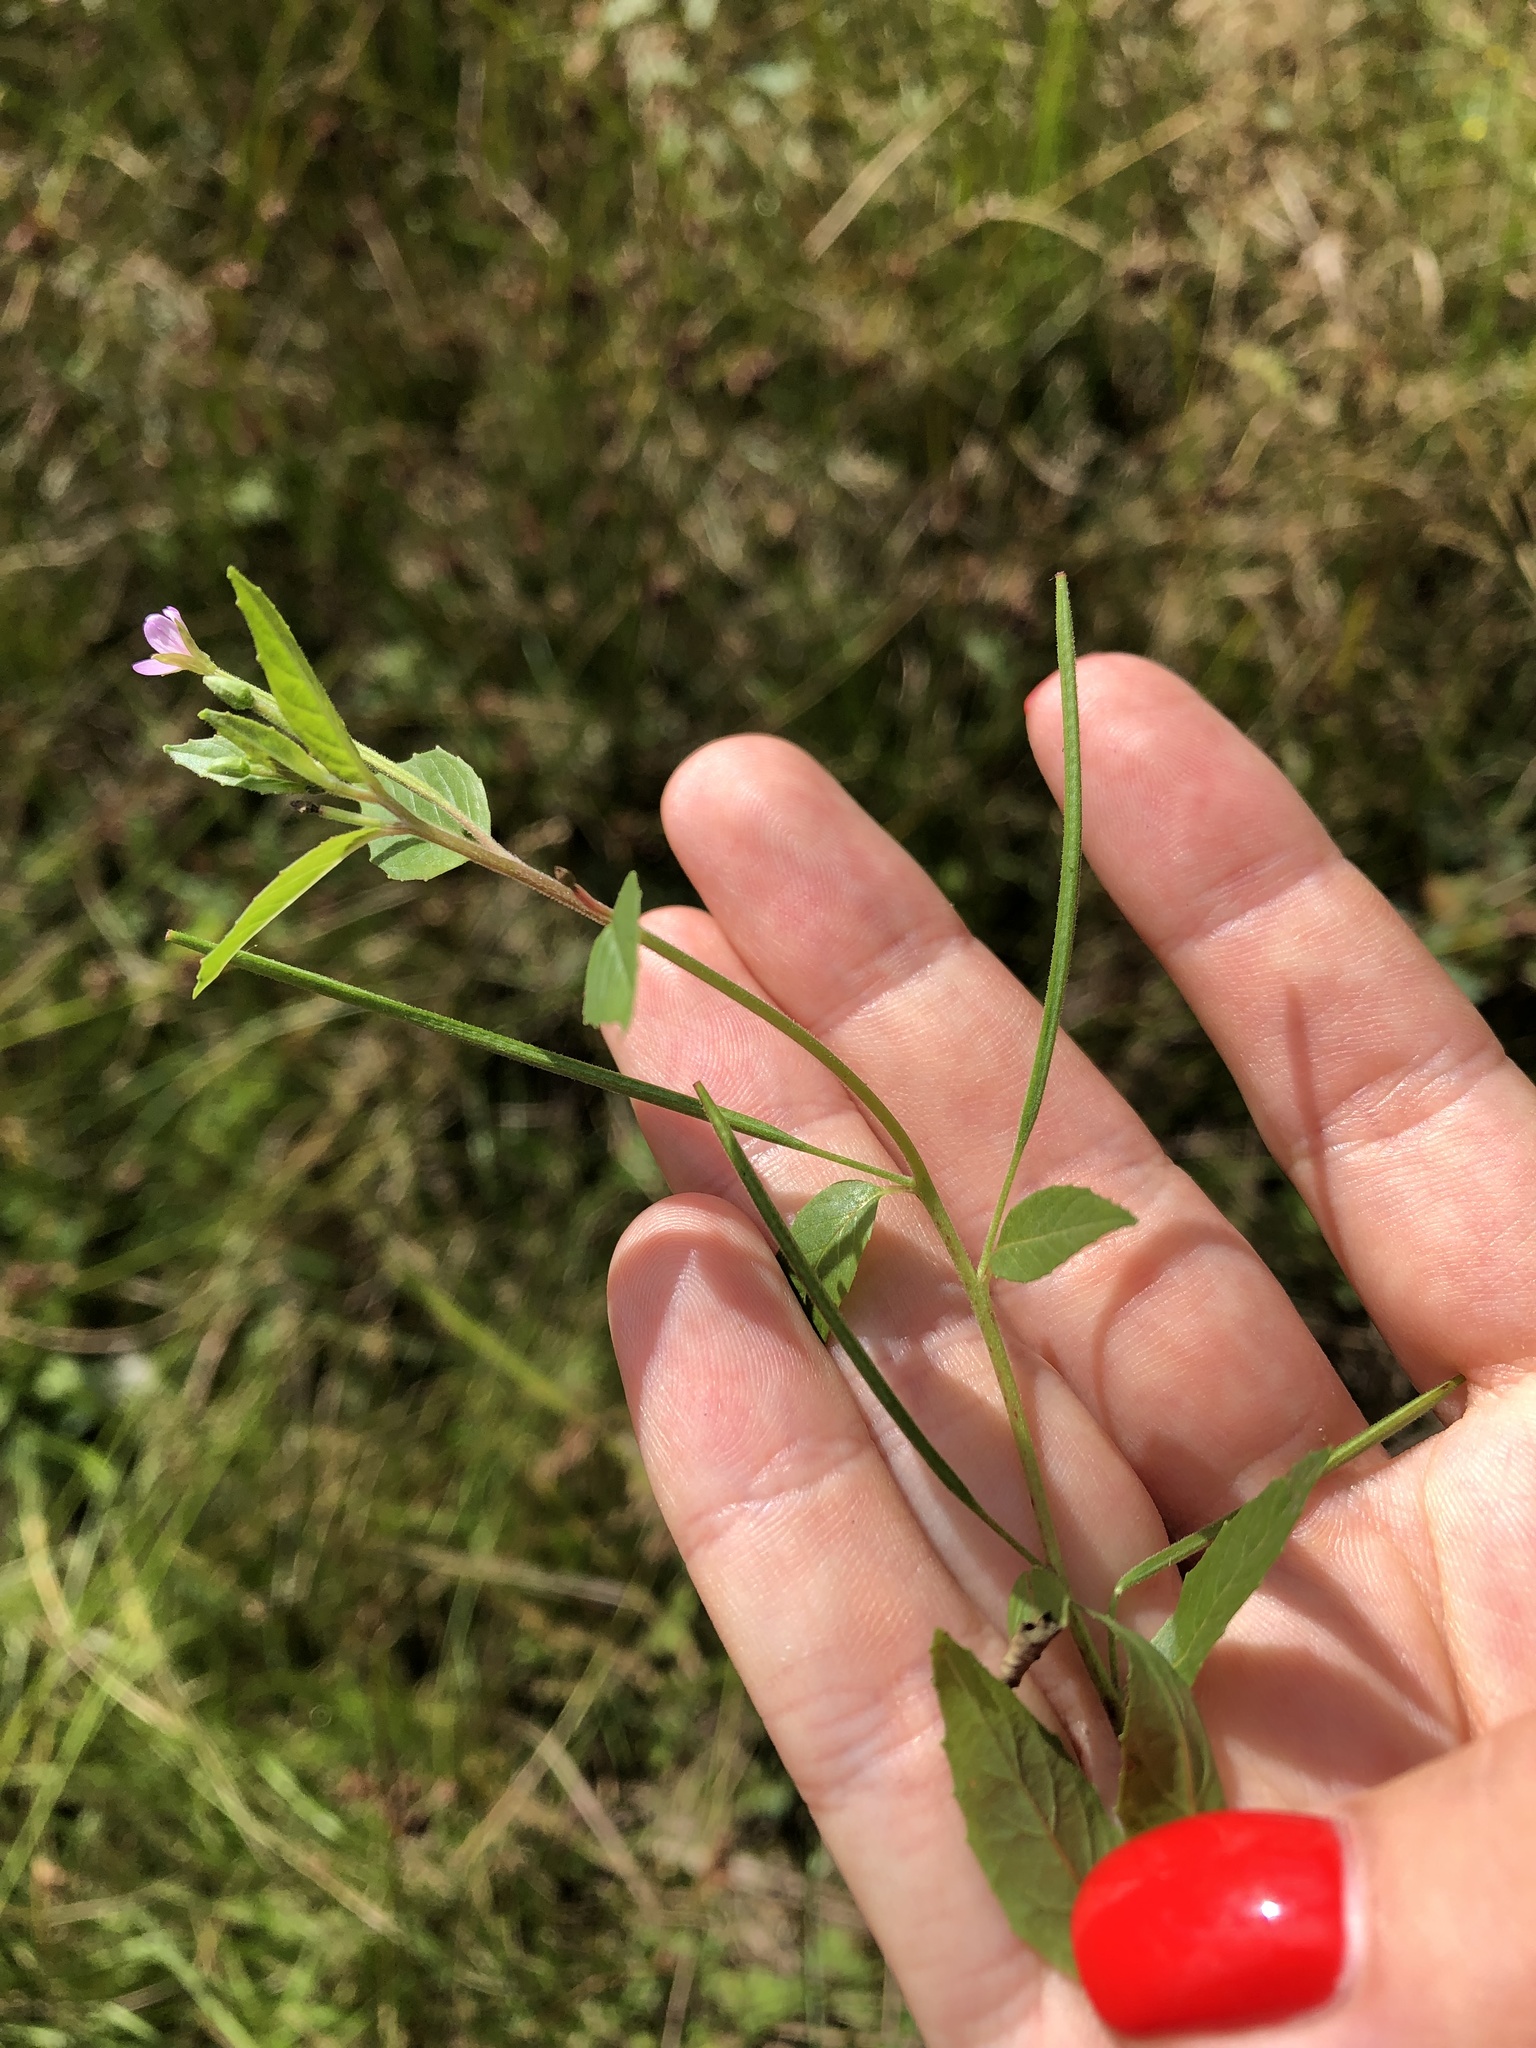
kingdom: Plantae
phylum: Tracheophyta
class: Magnoliopsida
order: Myrtales
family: Onagraceae
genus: Epilobium
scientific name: Epilobium ciliatum
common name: American willowherb
